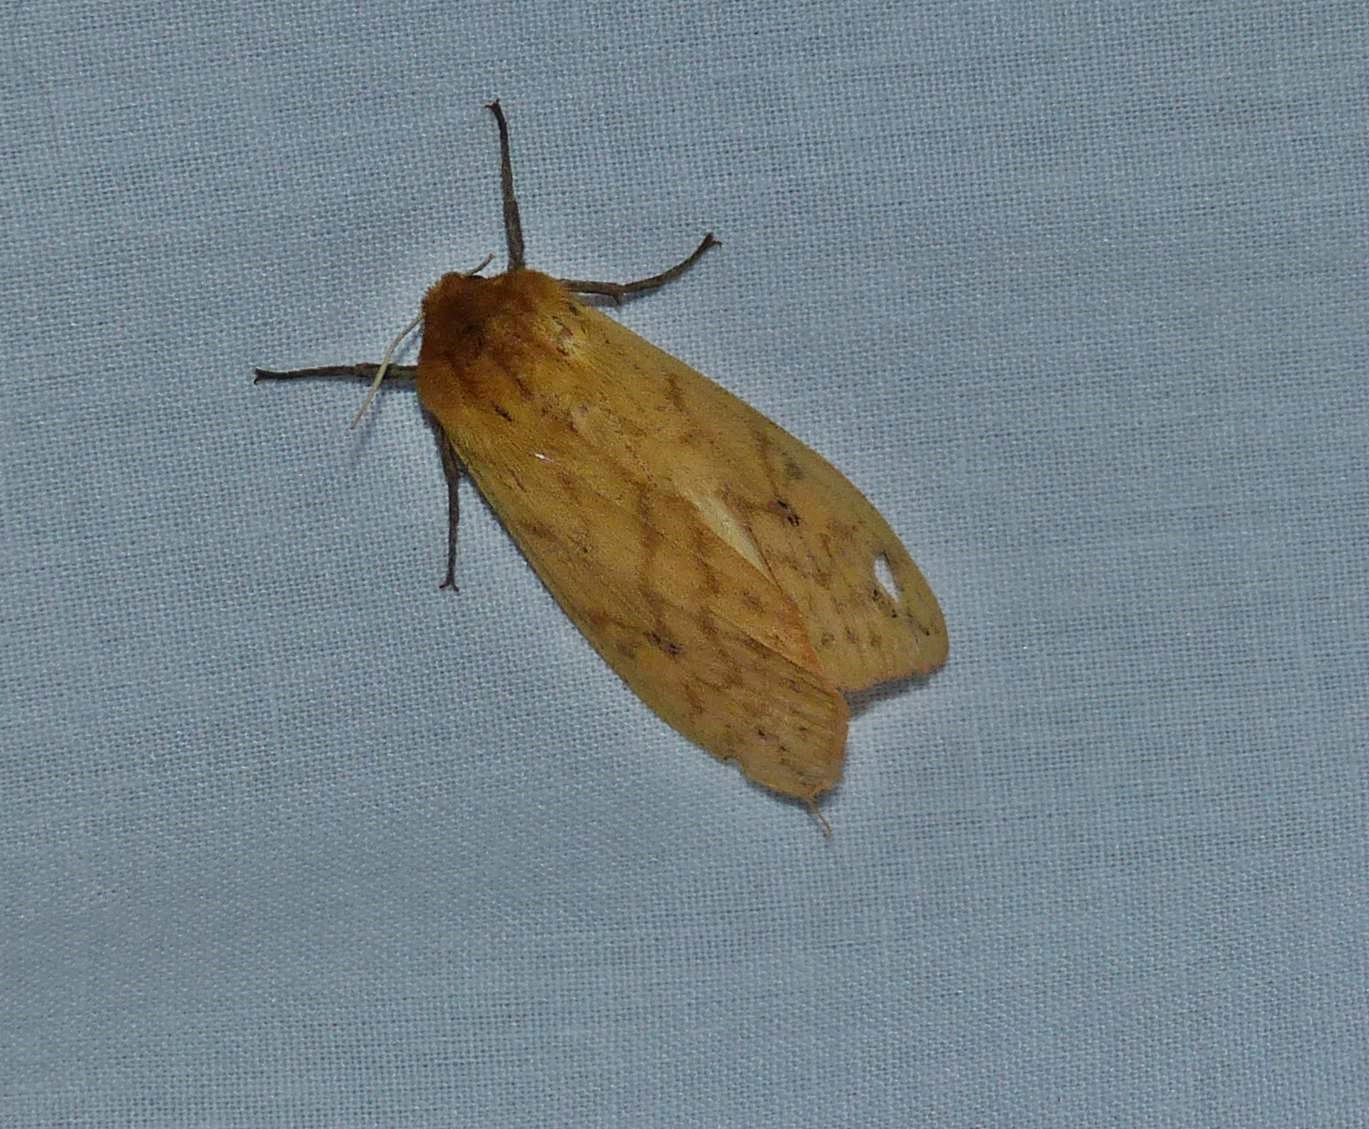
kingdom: Animalia
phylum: Arthropoda
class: Insecta
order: Lepidoptera
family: Erebidae
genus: Pyrrharctia
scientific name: Pyrrharctia isabella
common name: Isabella tiger moth
